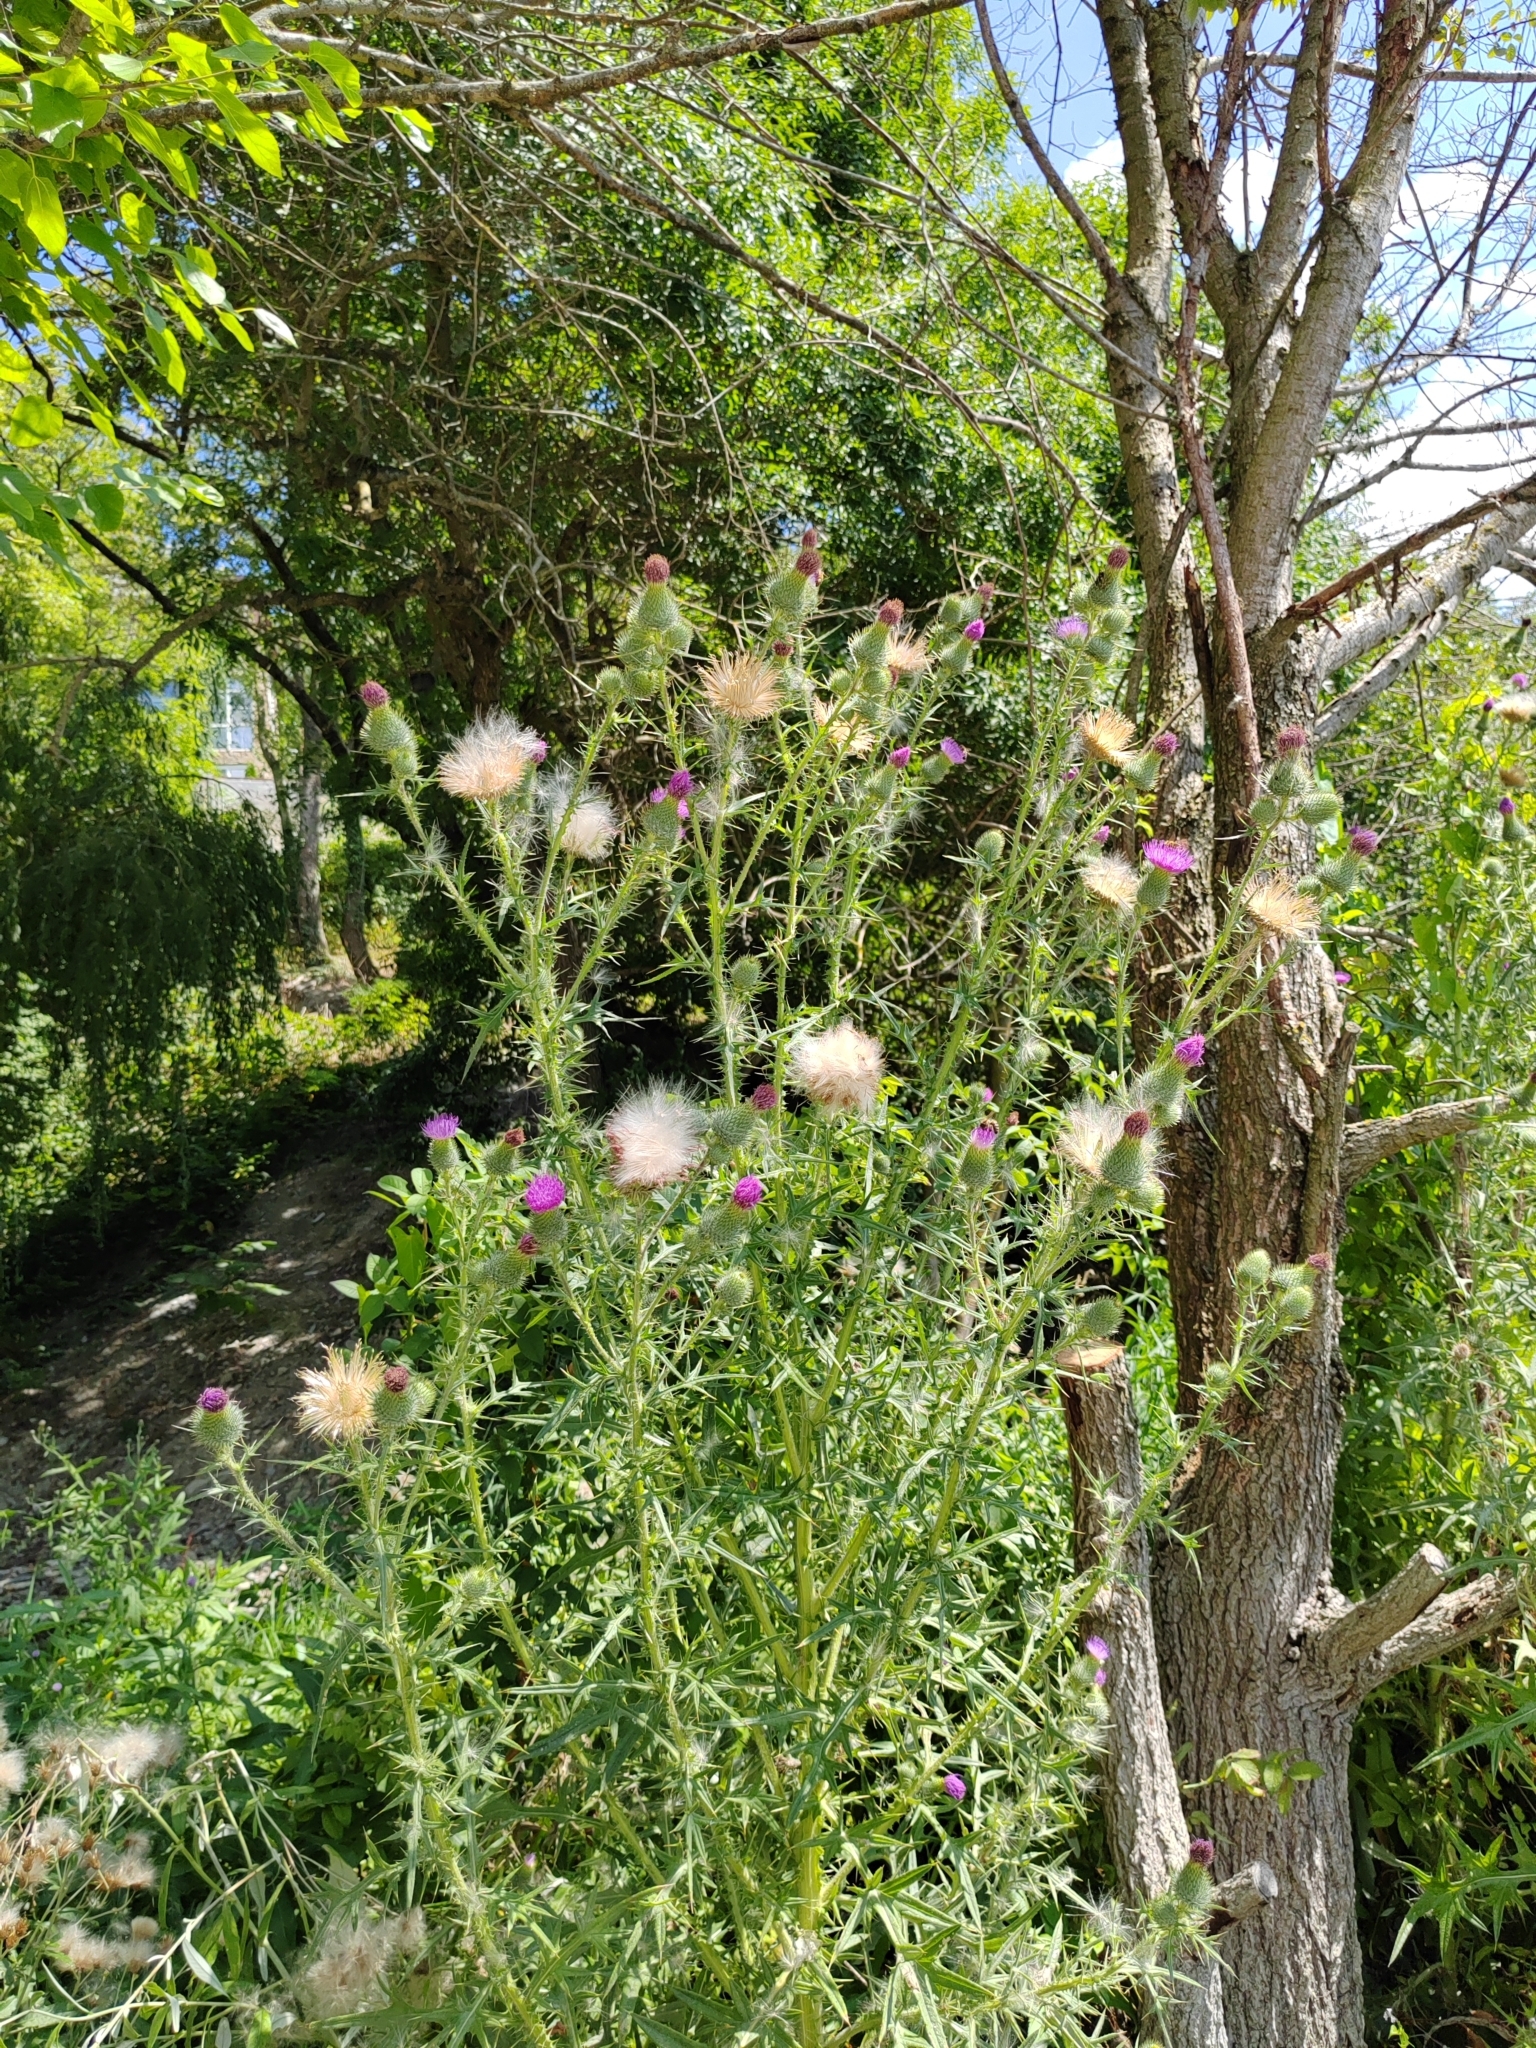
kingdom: Plantae
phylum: Tracheophyta
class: Magnoliopsida
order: Asterales
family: Asteraceae
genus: Cirsium
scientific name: Cirsium vulgare
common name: Bull thistle
